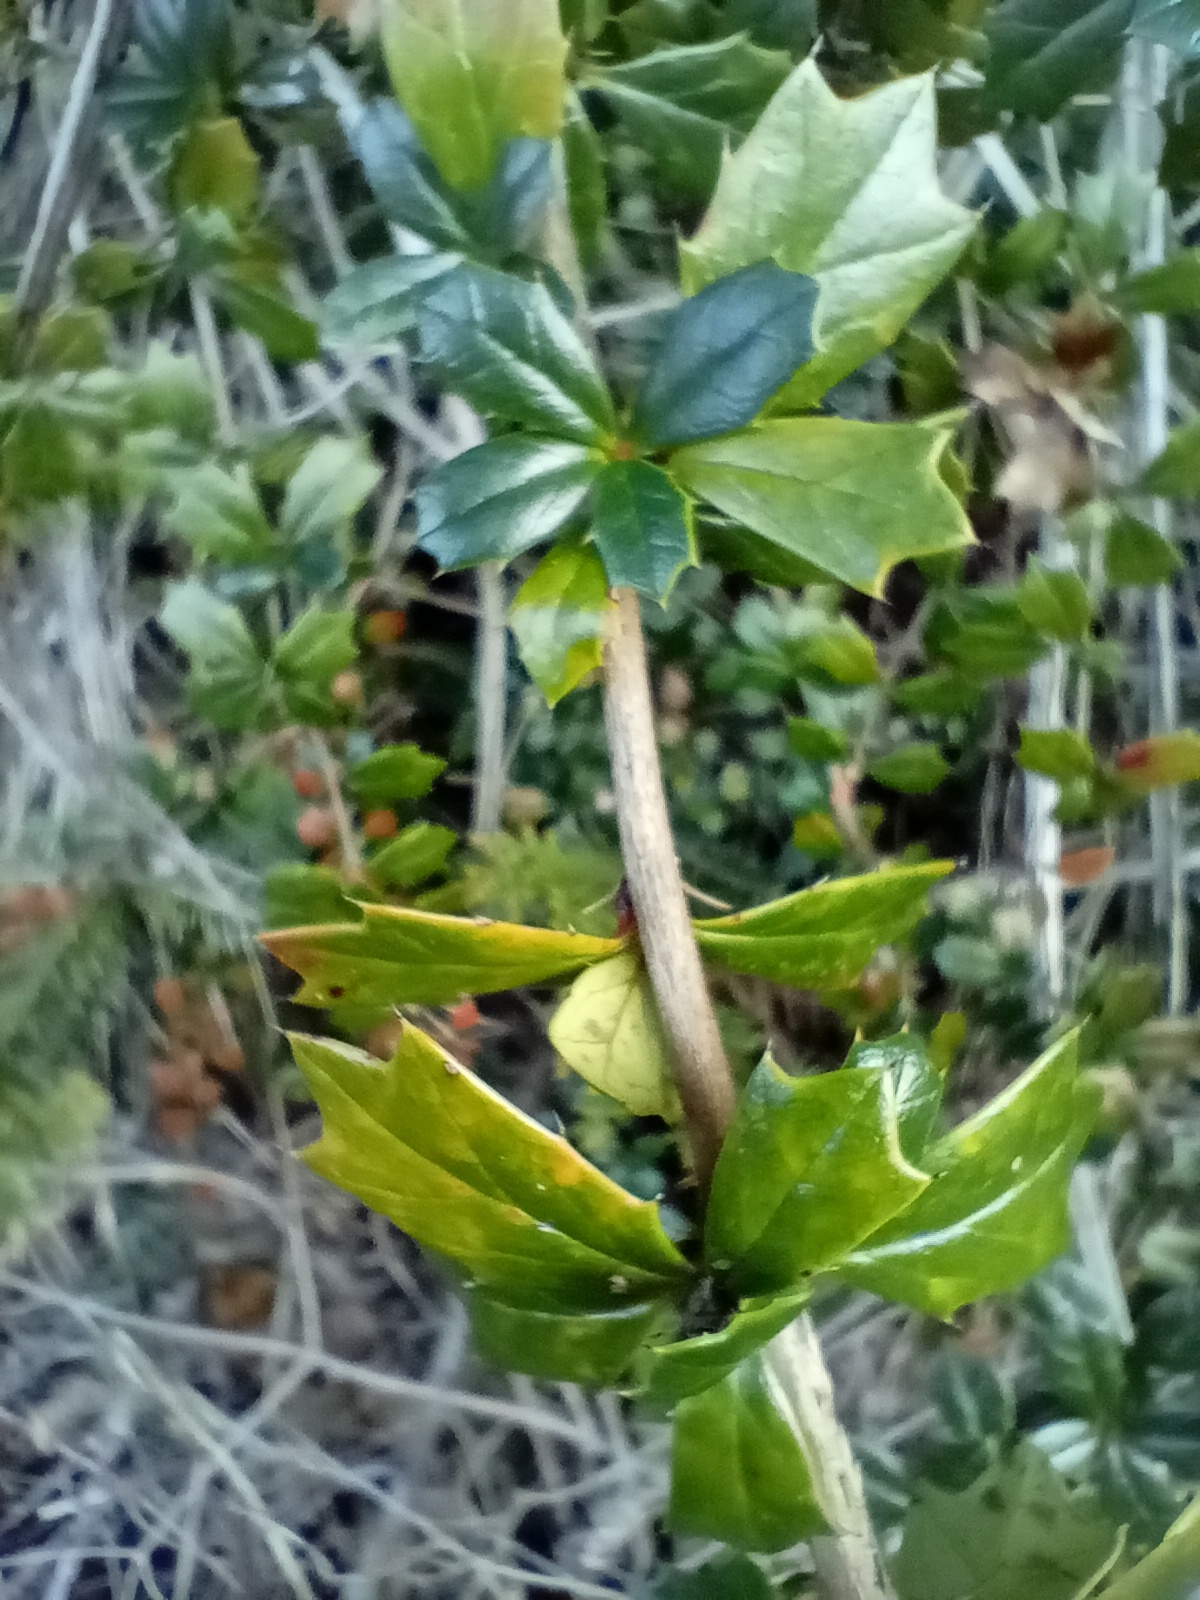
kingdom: Plantae
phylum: Tracheophyta
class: Magnoliopsida
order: Ranunculales
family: Berberidaceae
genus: Berberis
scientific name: Berberis darwinii
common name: Darwin's barberry
